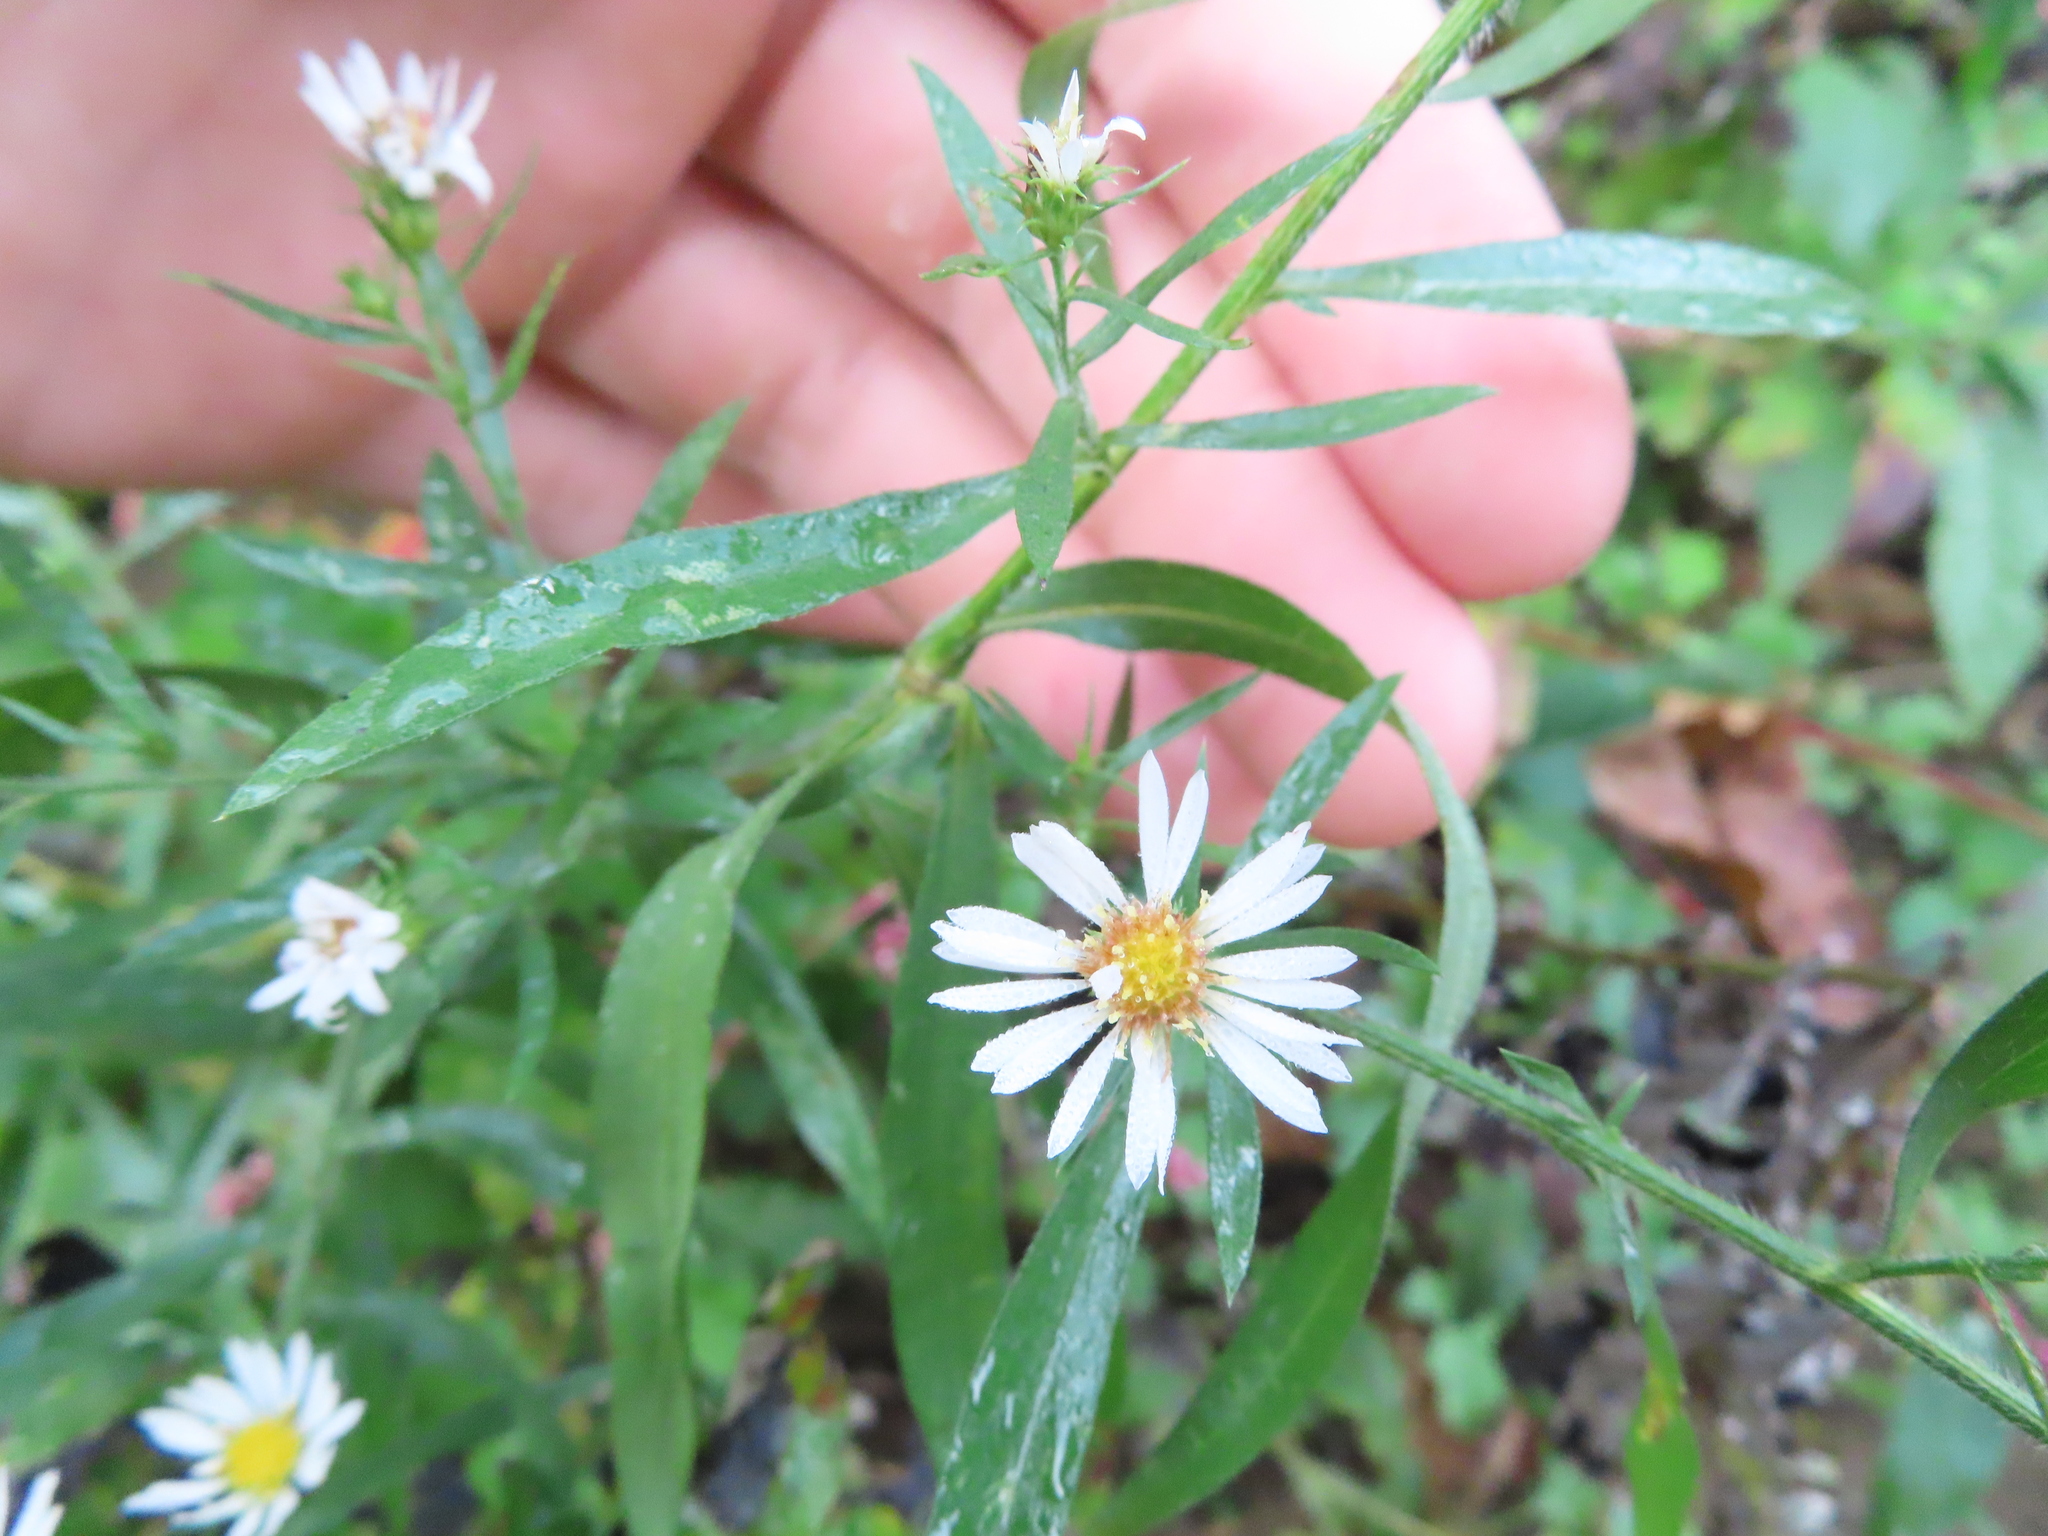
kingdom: Plantae
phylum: Tracheophyta
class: Magnoliopsida
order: Asterales
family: Asteraceae
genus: Symphyotrichum
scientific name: Symphyotrichum pilosum
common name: Awl aster
